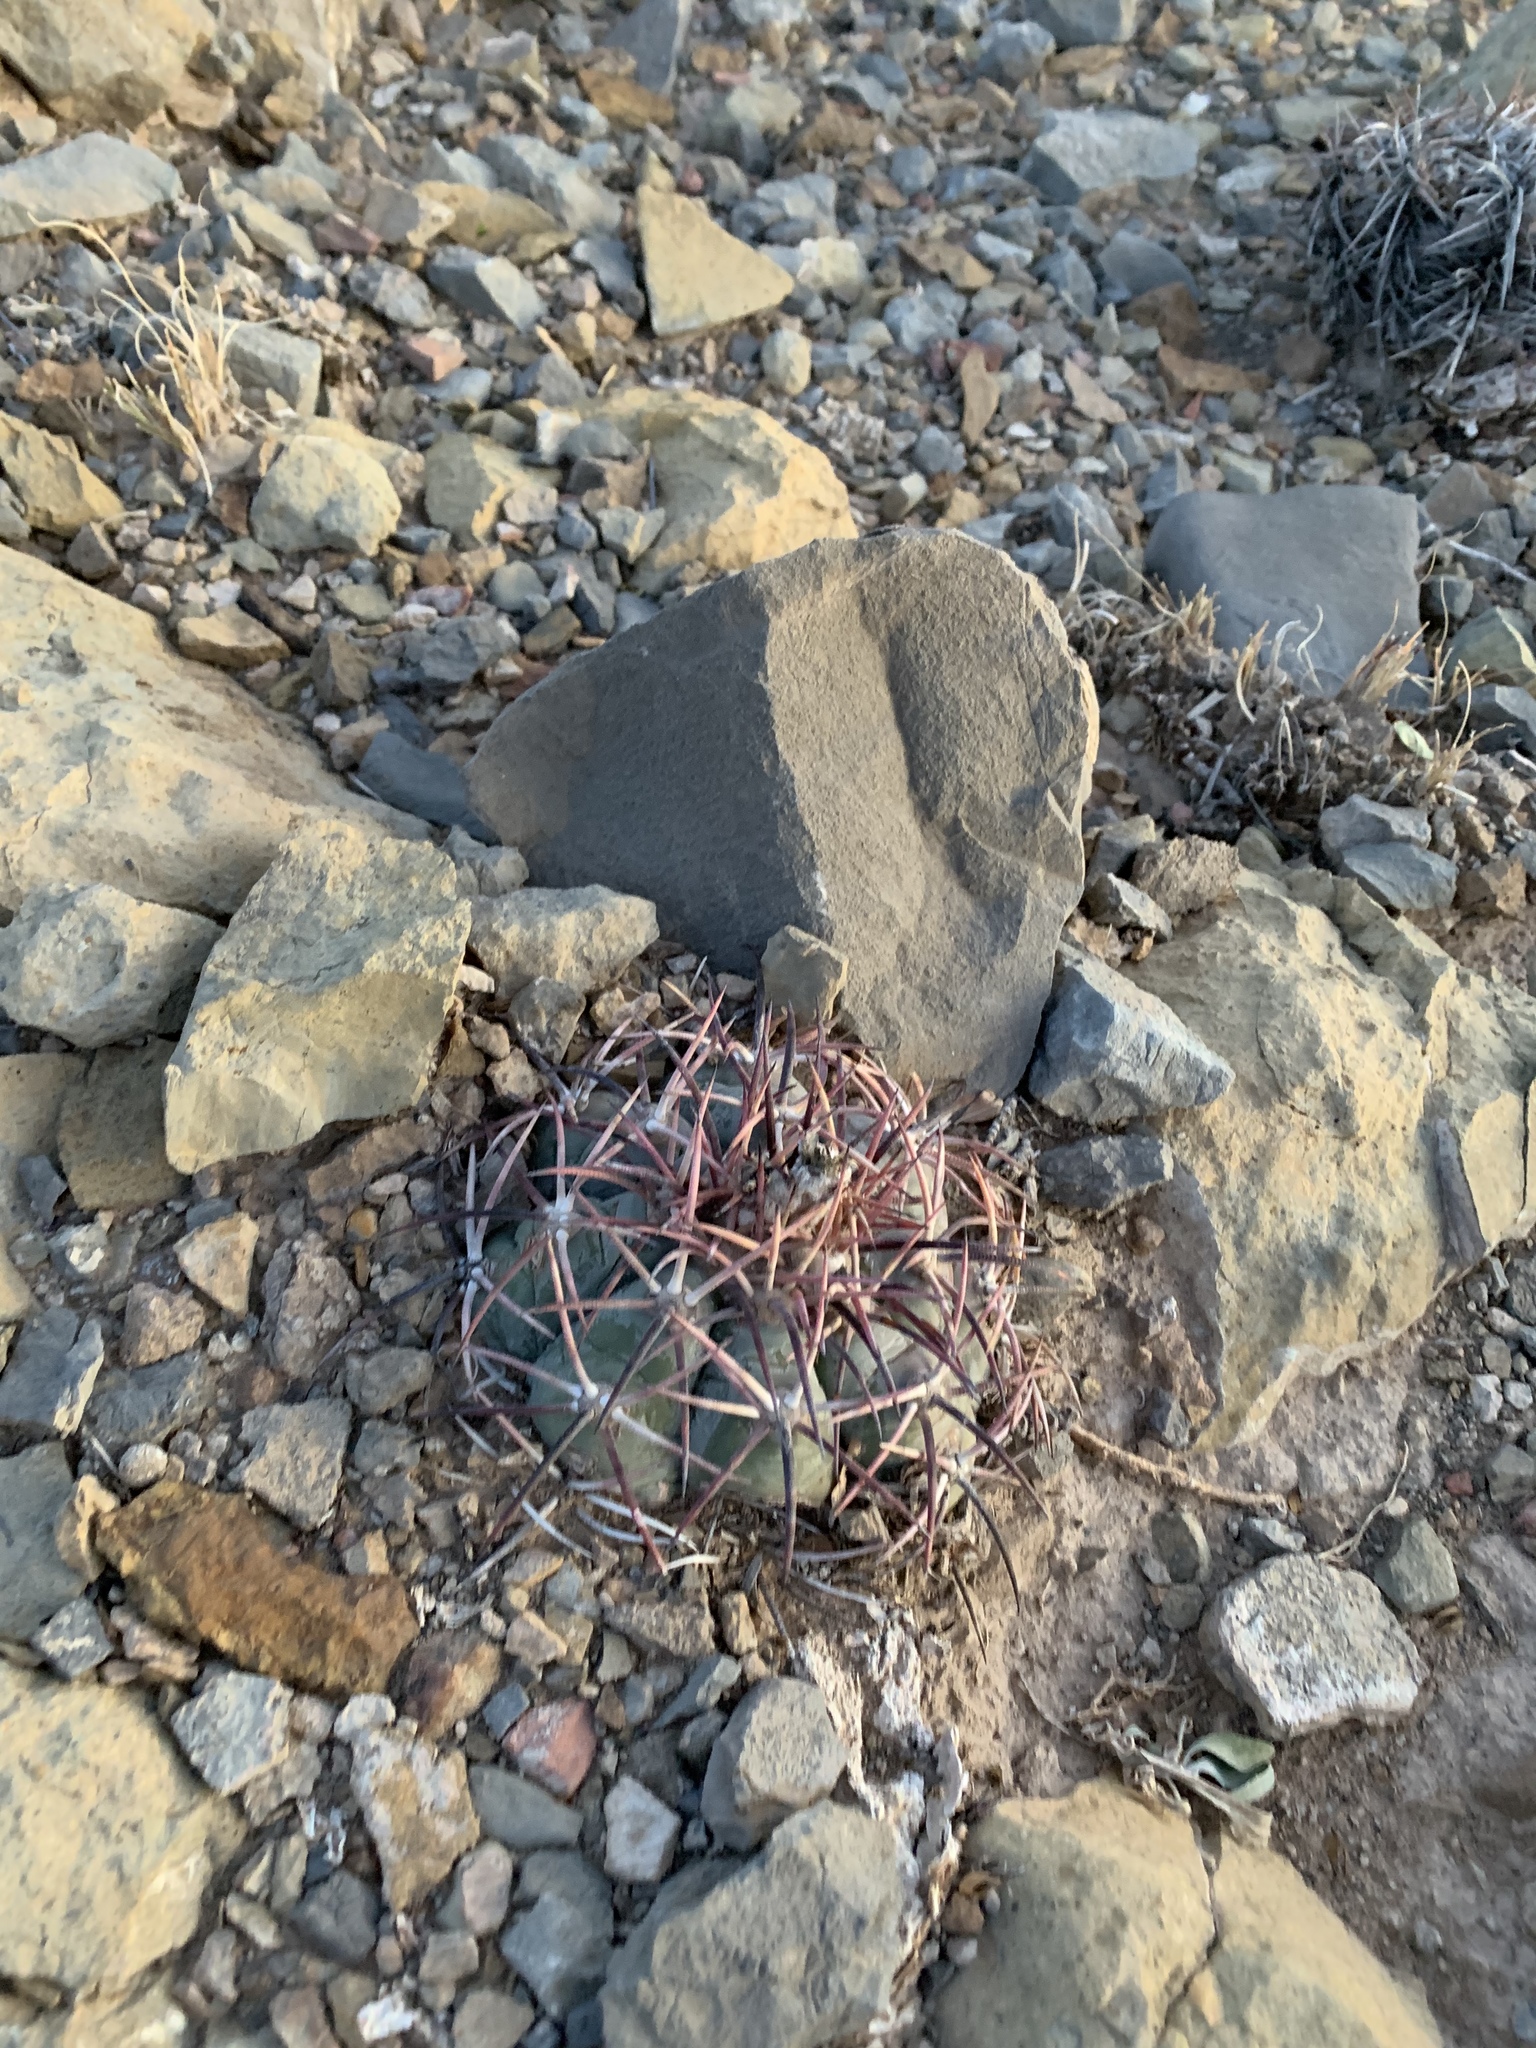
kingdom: Plantae
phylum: Tracheophyta
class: Magnoliopsida
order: Caryophyllales
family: Cactaceae
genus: Echinocactus
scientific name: Echinocactus horizonthalonius
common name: Devilshead
